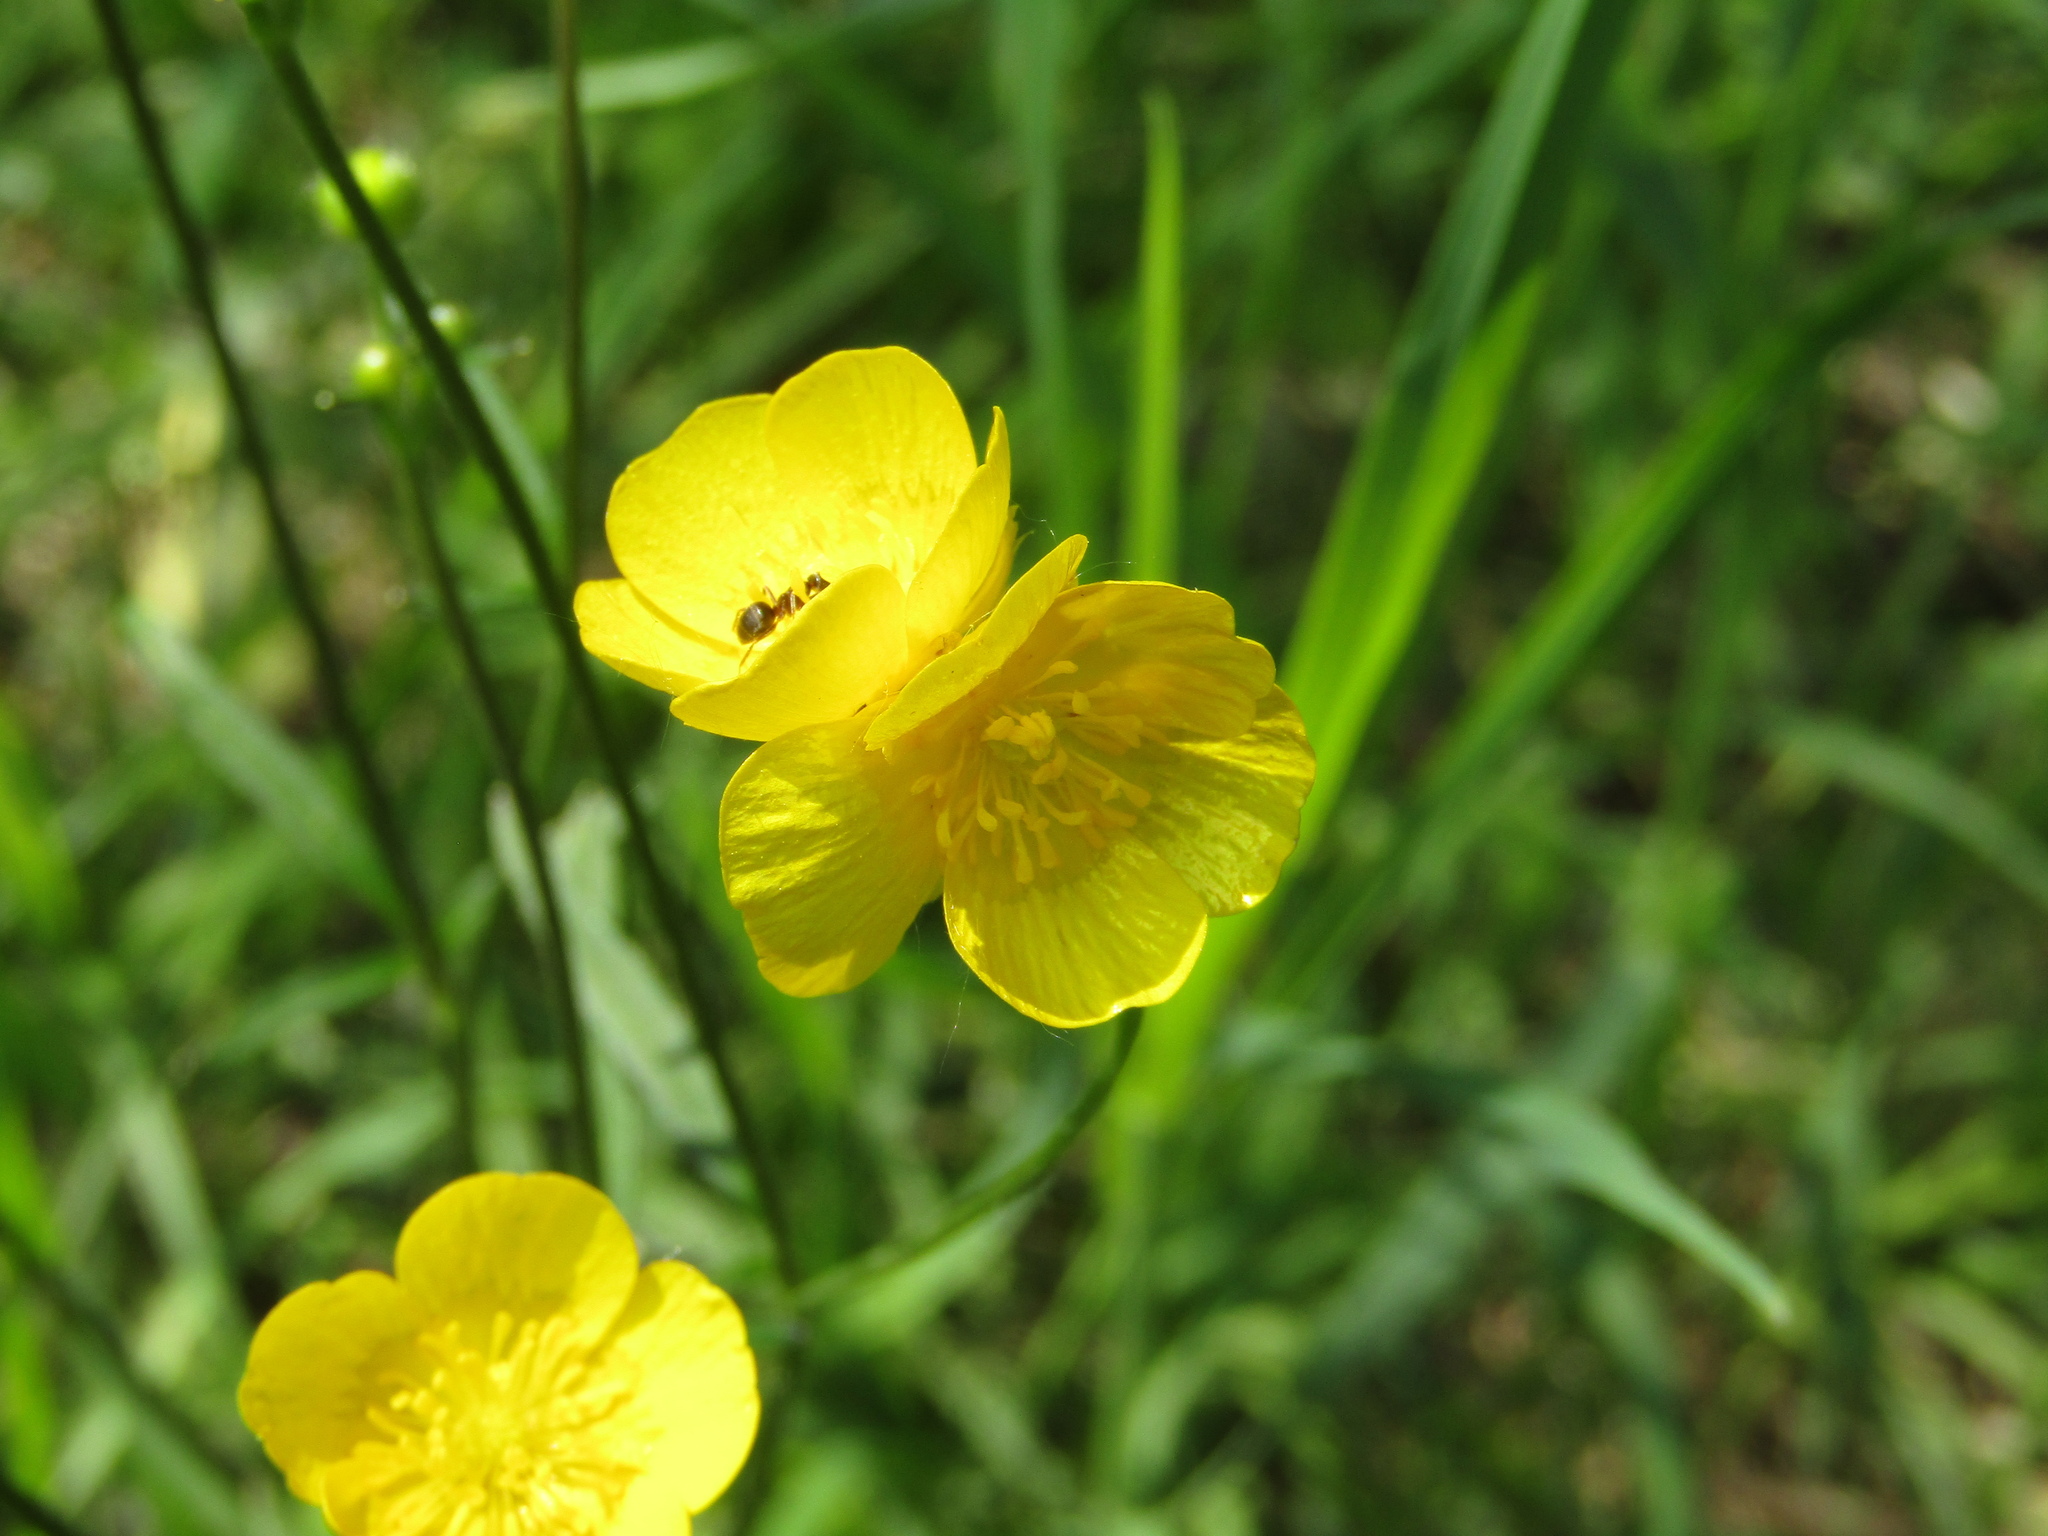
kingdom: Plantae
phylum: Tracheophyta
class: Magnoliopsida
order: Ranunculales
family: Ranunculaceae
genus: Ranunculus
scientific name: Ranunculus acris
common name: Meadow buttercup
